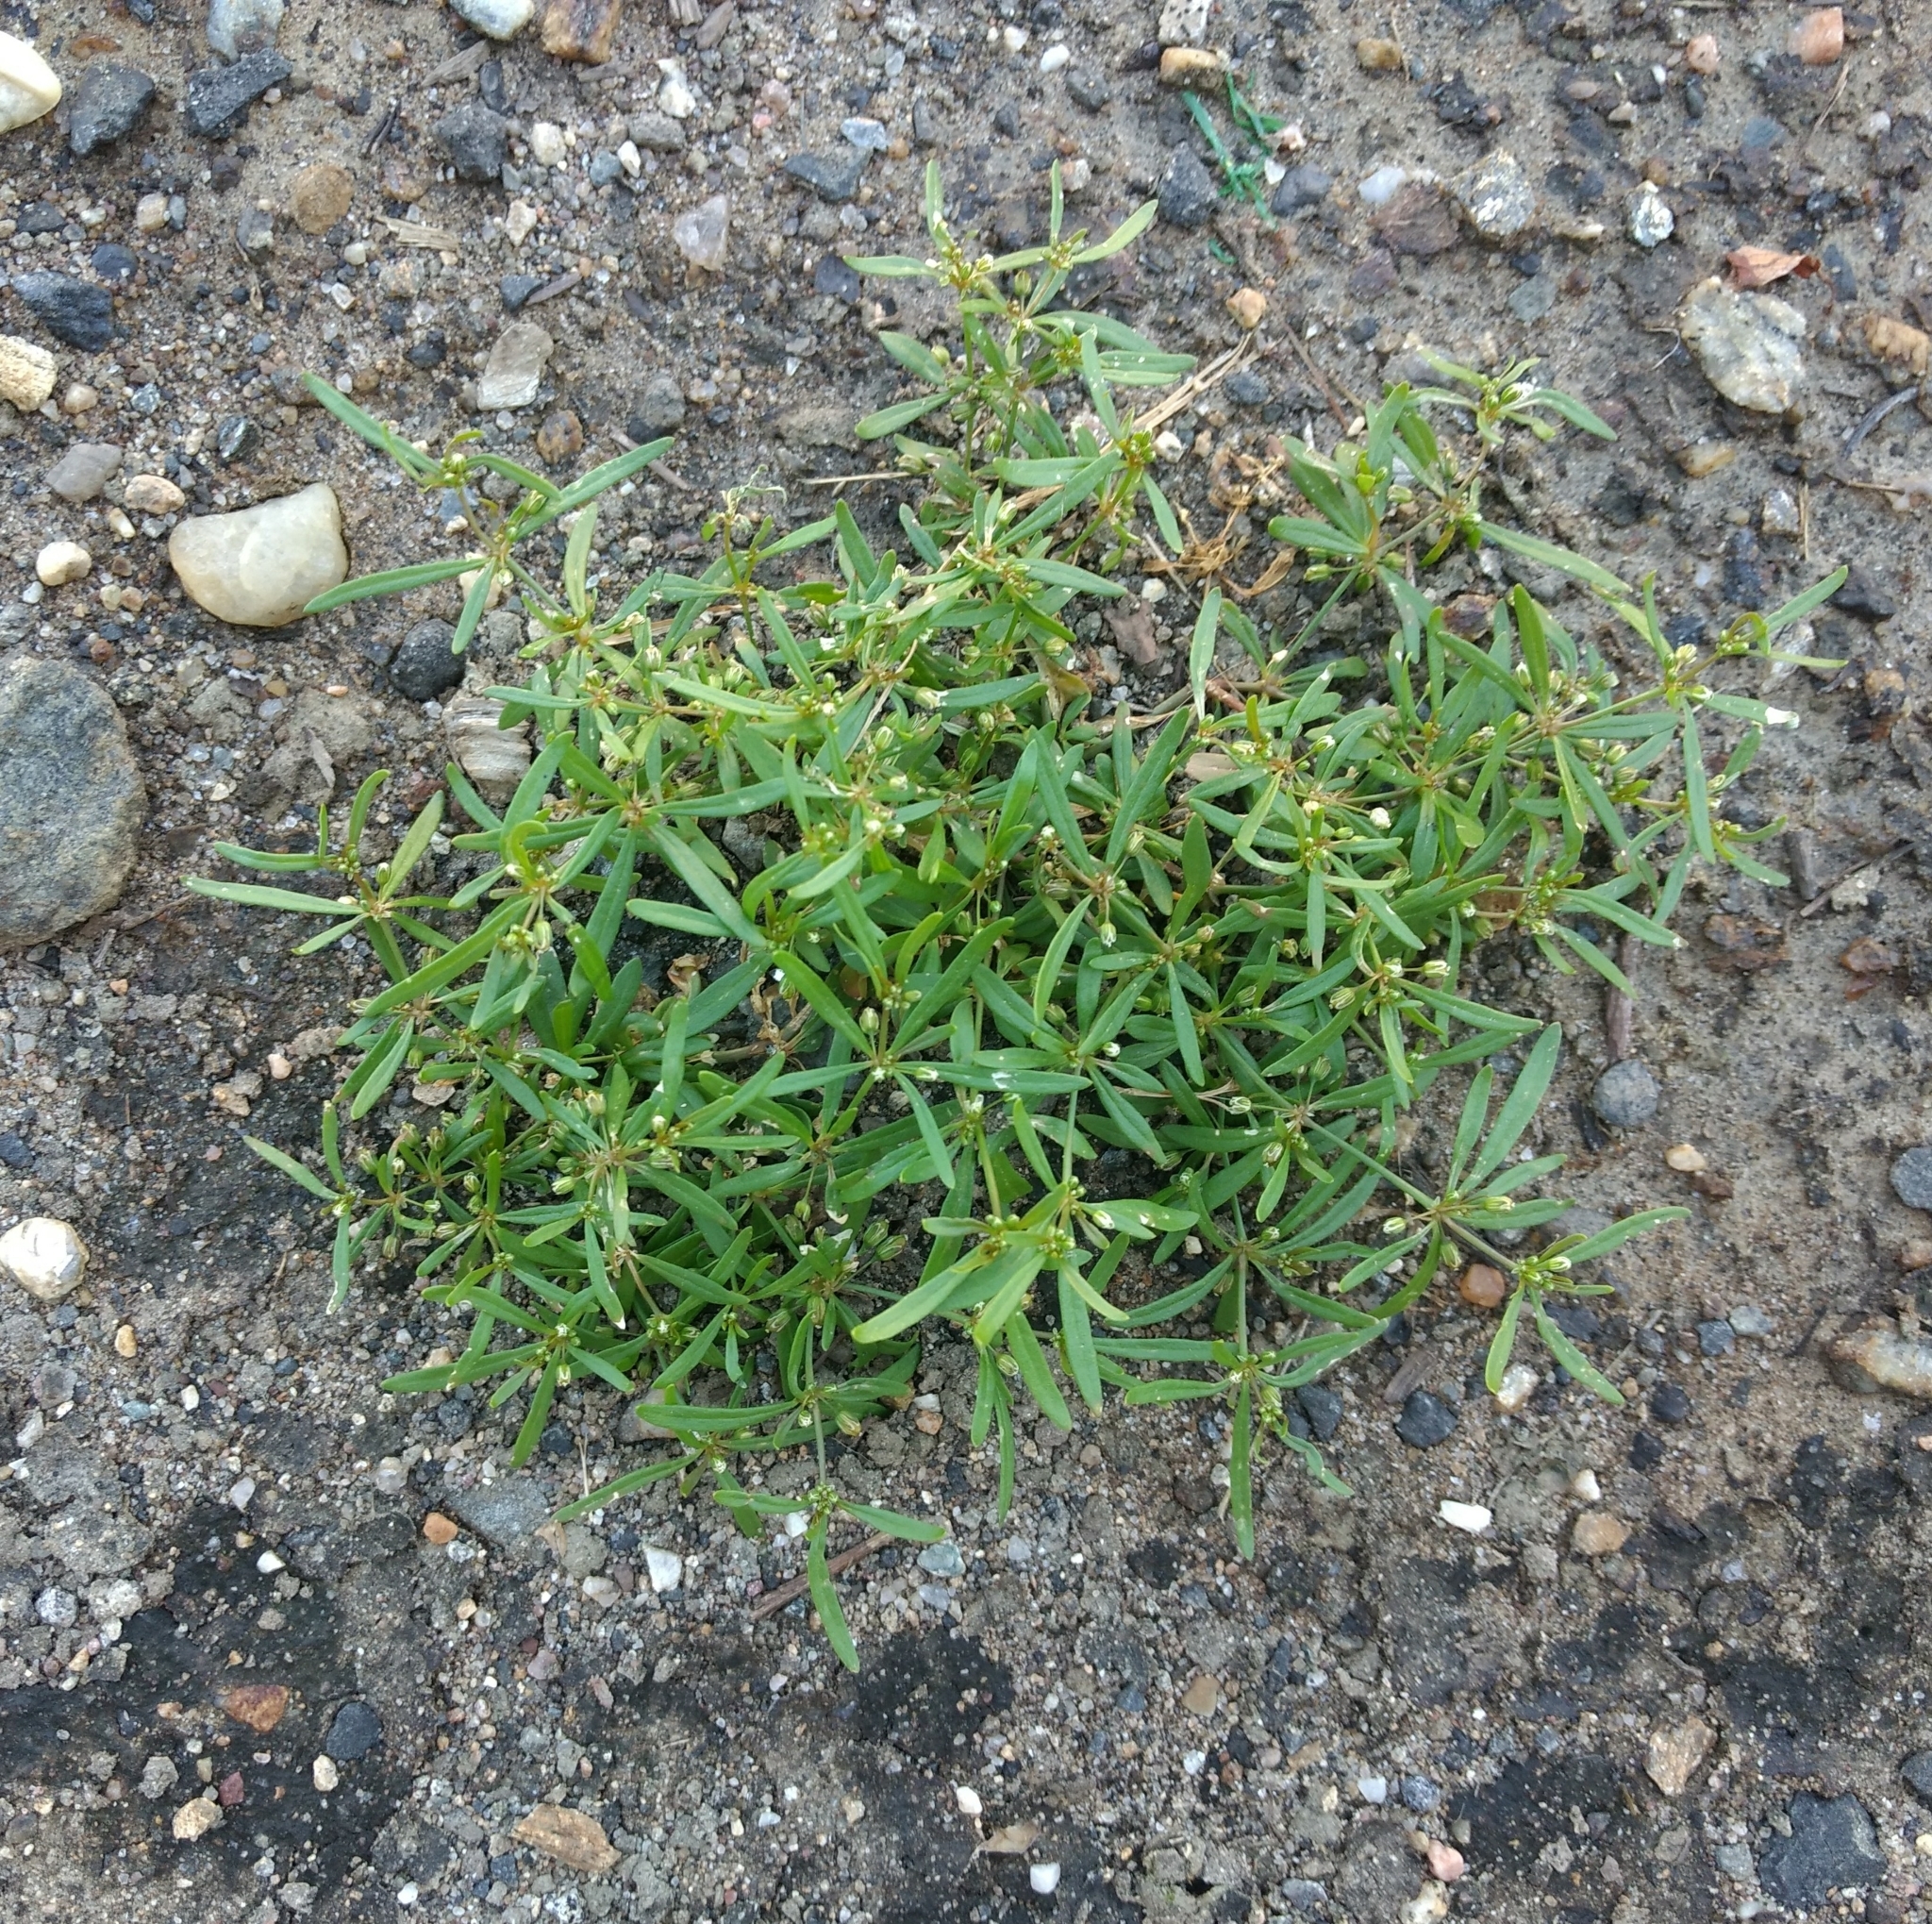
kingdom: Plantae
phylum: Tracheophyta
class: Magnoliopsida
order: Caryophyllales
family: Molluginaceae
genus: Mollugo
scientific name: Mollugo verticillata
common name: Green carpetweed
